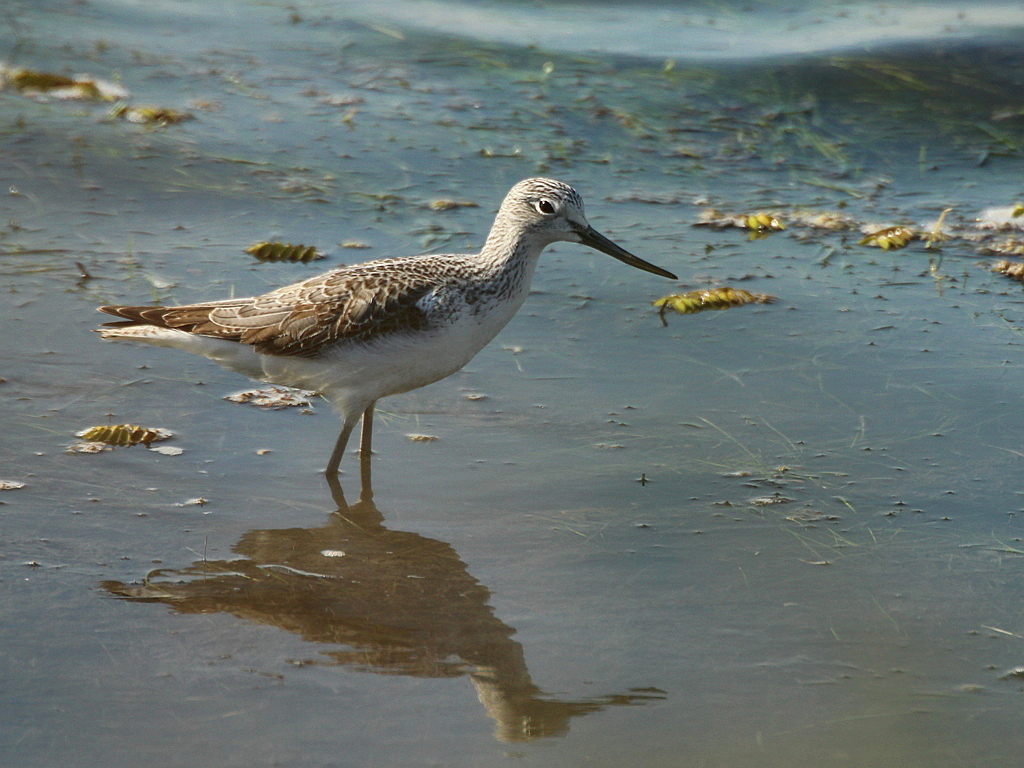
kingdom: Animalia
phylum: Chordata
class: Aves
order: Charadriiformes
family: Scolopacidae
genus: Tringa
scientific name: Tringa nebularia
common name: Common greenshank
